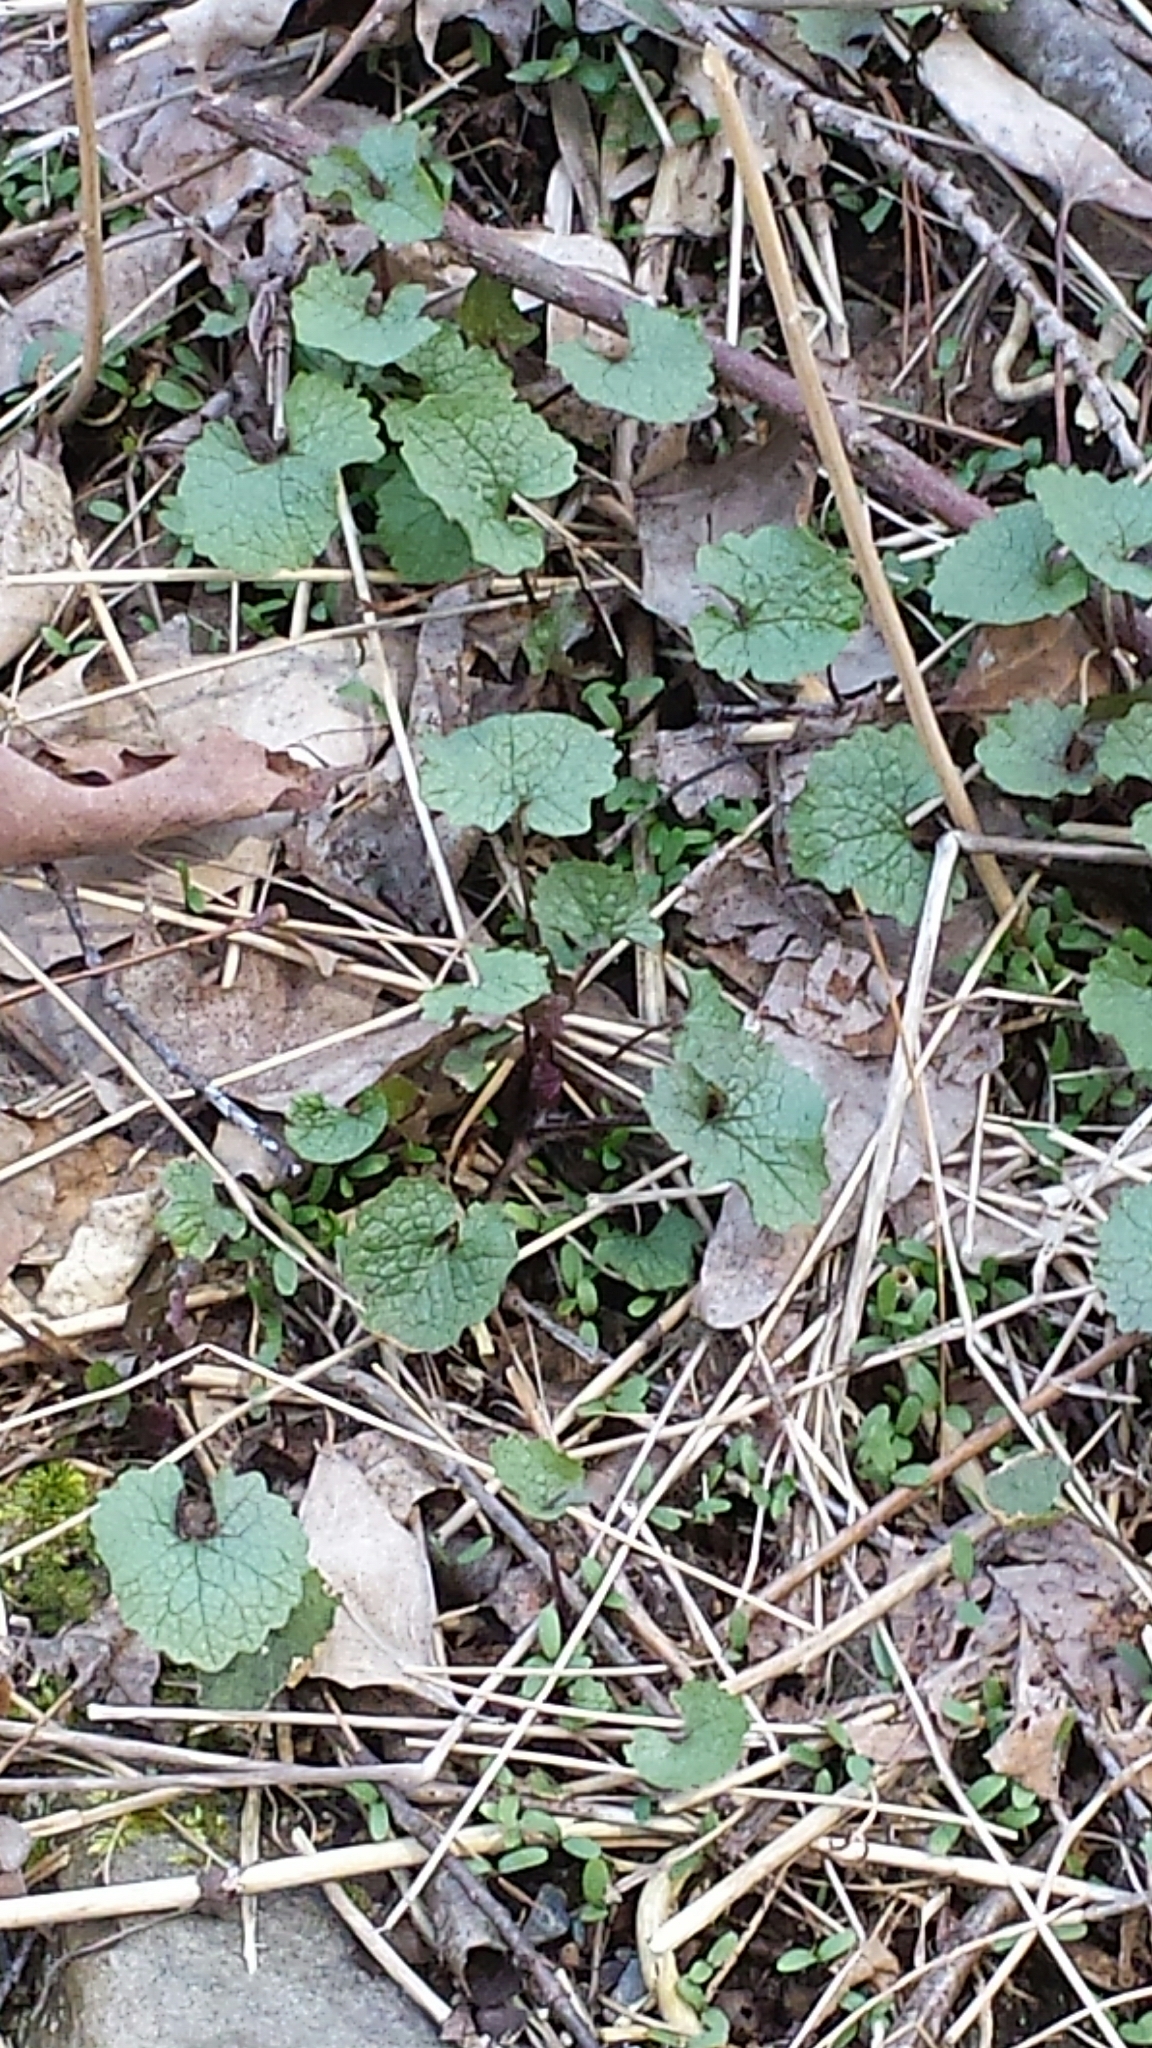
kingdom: Plantae
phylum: Tracheophyta
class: Magnoliopsida
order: Brassicales
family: Brassicaceae
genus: Alliaria
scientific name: Alliaria petiolata
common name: Garlic mustard
